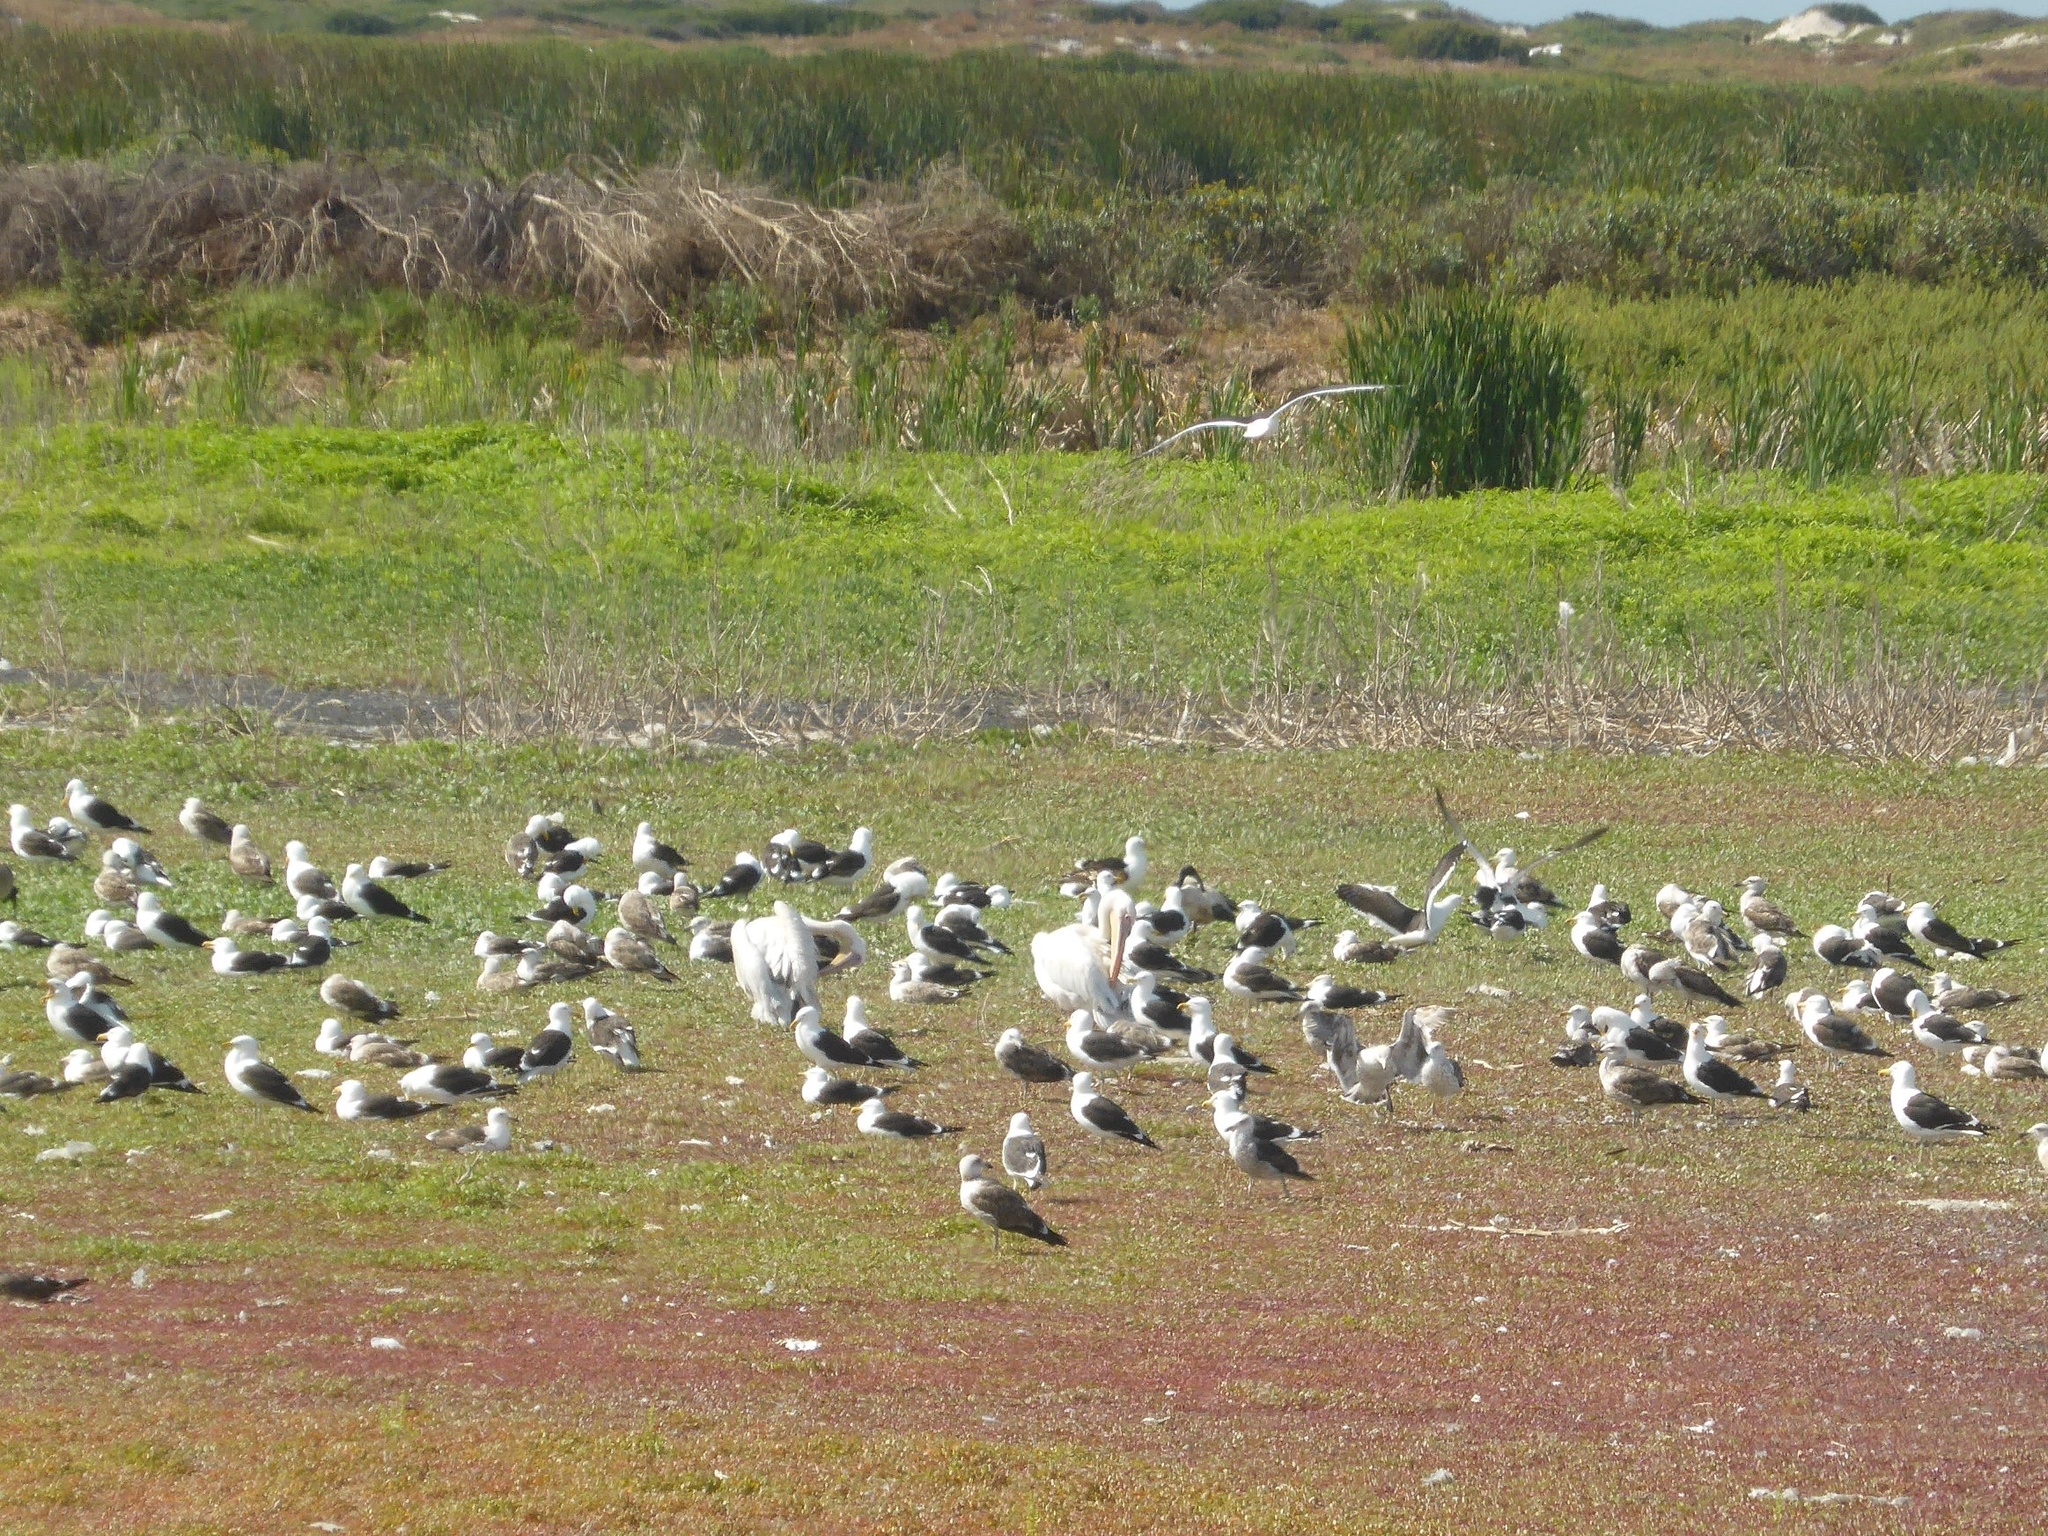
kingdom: Animalia
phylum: Chordata
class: Aves
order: Pelecaniformes
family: Pelecanidae
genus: Pelecanus
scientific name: Pelecanus onocrotalus
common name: Great white pelican
